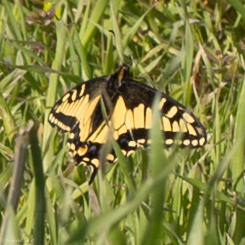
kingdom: Animalia
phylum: Arthropoda
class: Insecta
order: Lepidoptera
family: Papilionidae
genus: Papilio
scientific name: Papilio zelicaon
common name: Anise swallowtail
